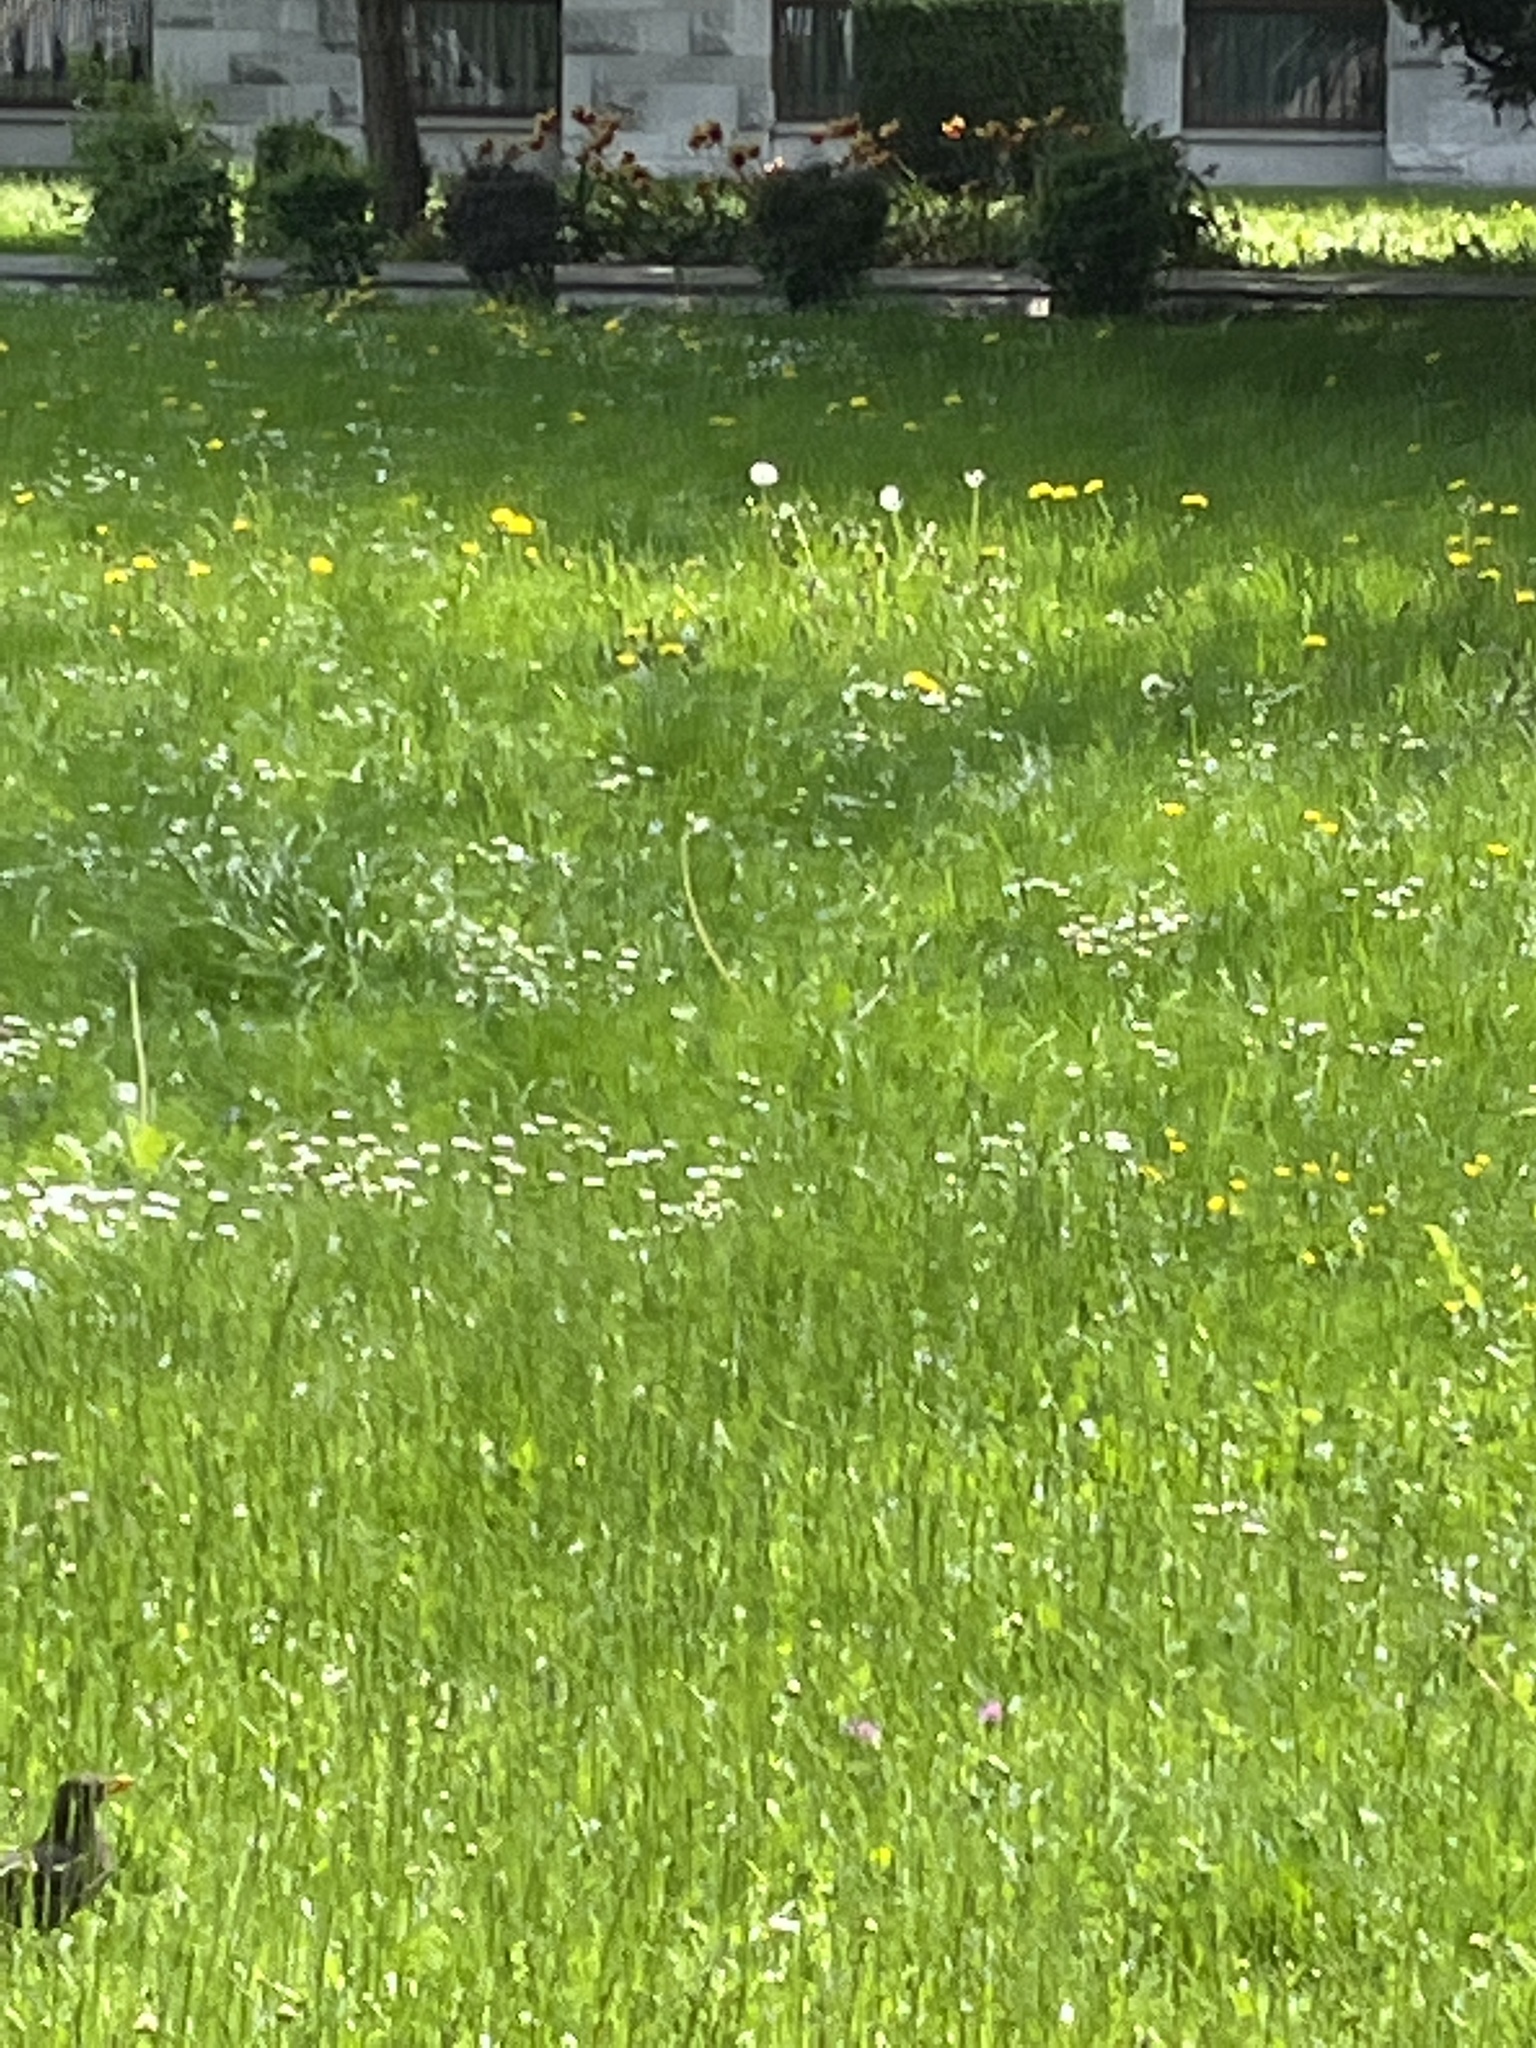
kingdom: Animalia
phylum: Chordata
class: Aves
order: Passeriformes
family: Turdidae
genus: Turdus
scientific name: Turdus merula
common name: Common blackbird
